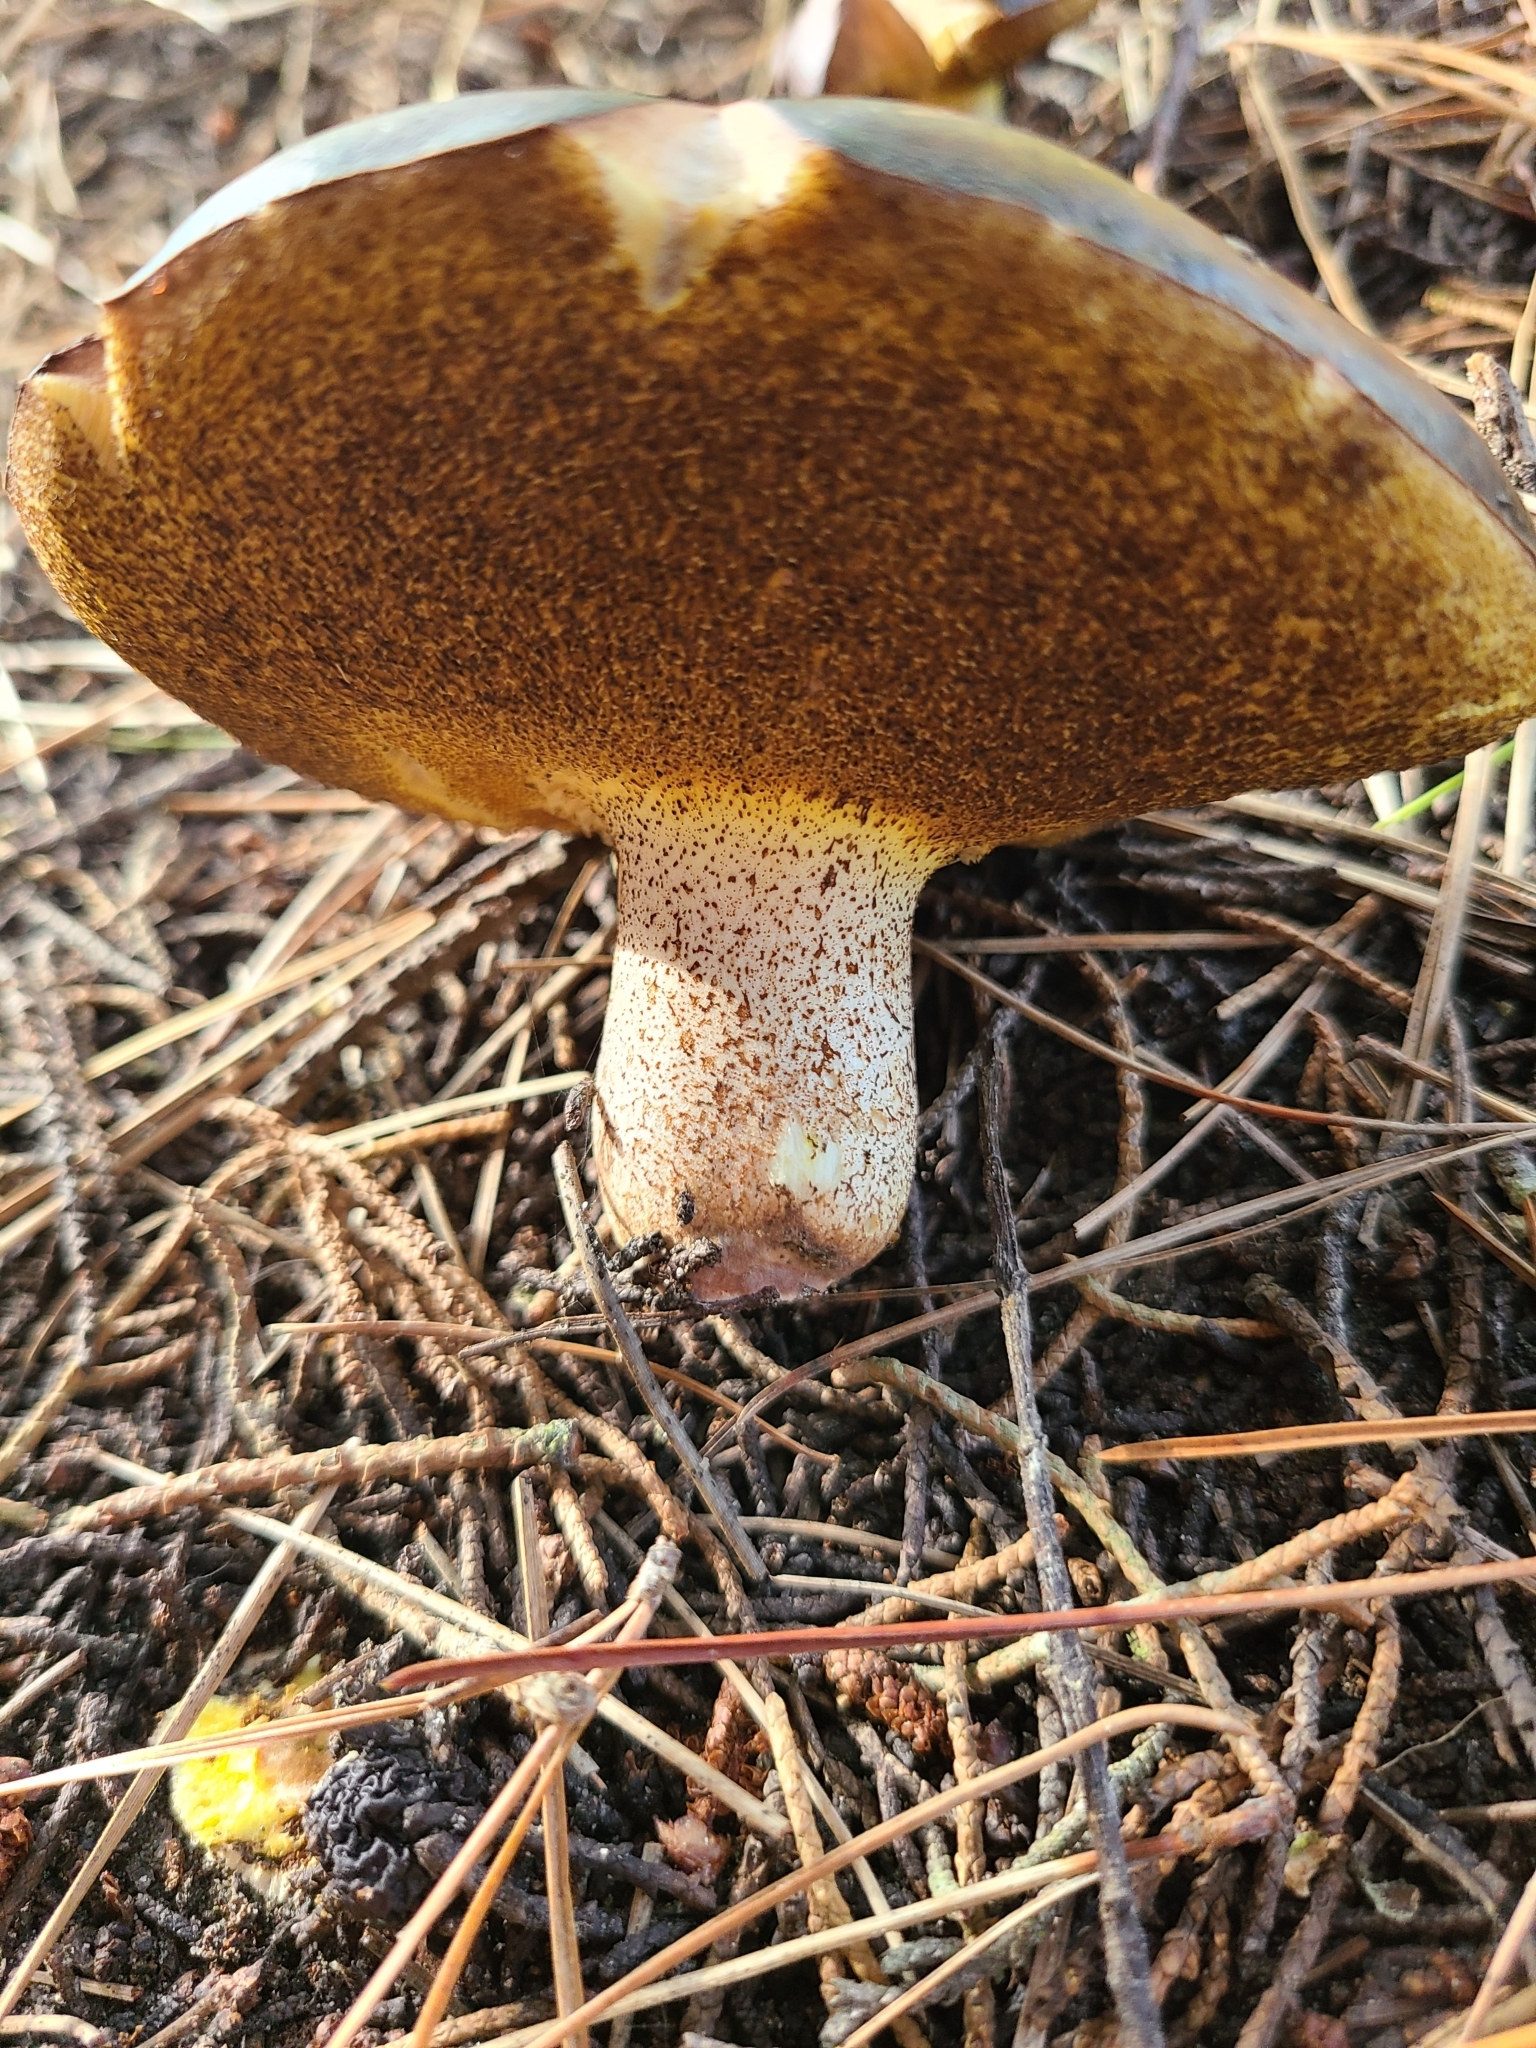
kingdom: Fungi
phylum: Basidiomycota
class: Agaricomycetes
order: Boletales
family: Suillaceae
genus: Suillus
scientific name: Suillus granulatus
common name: Weeping bolete
